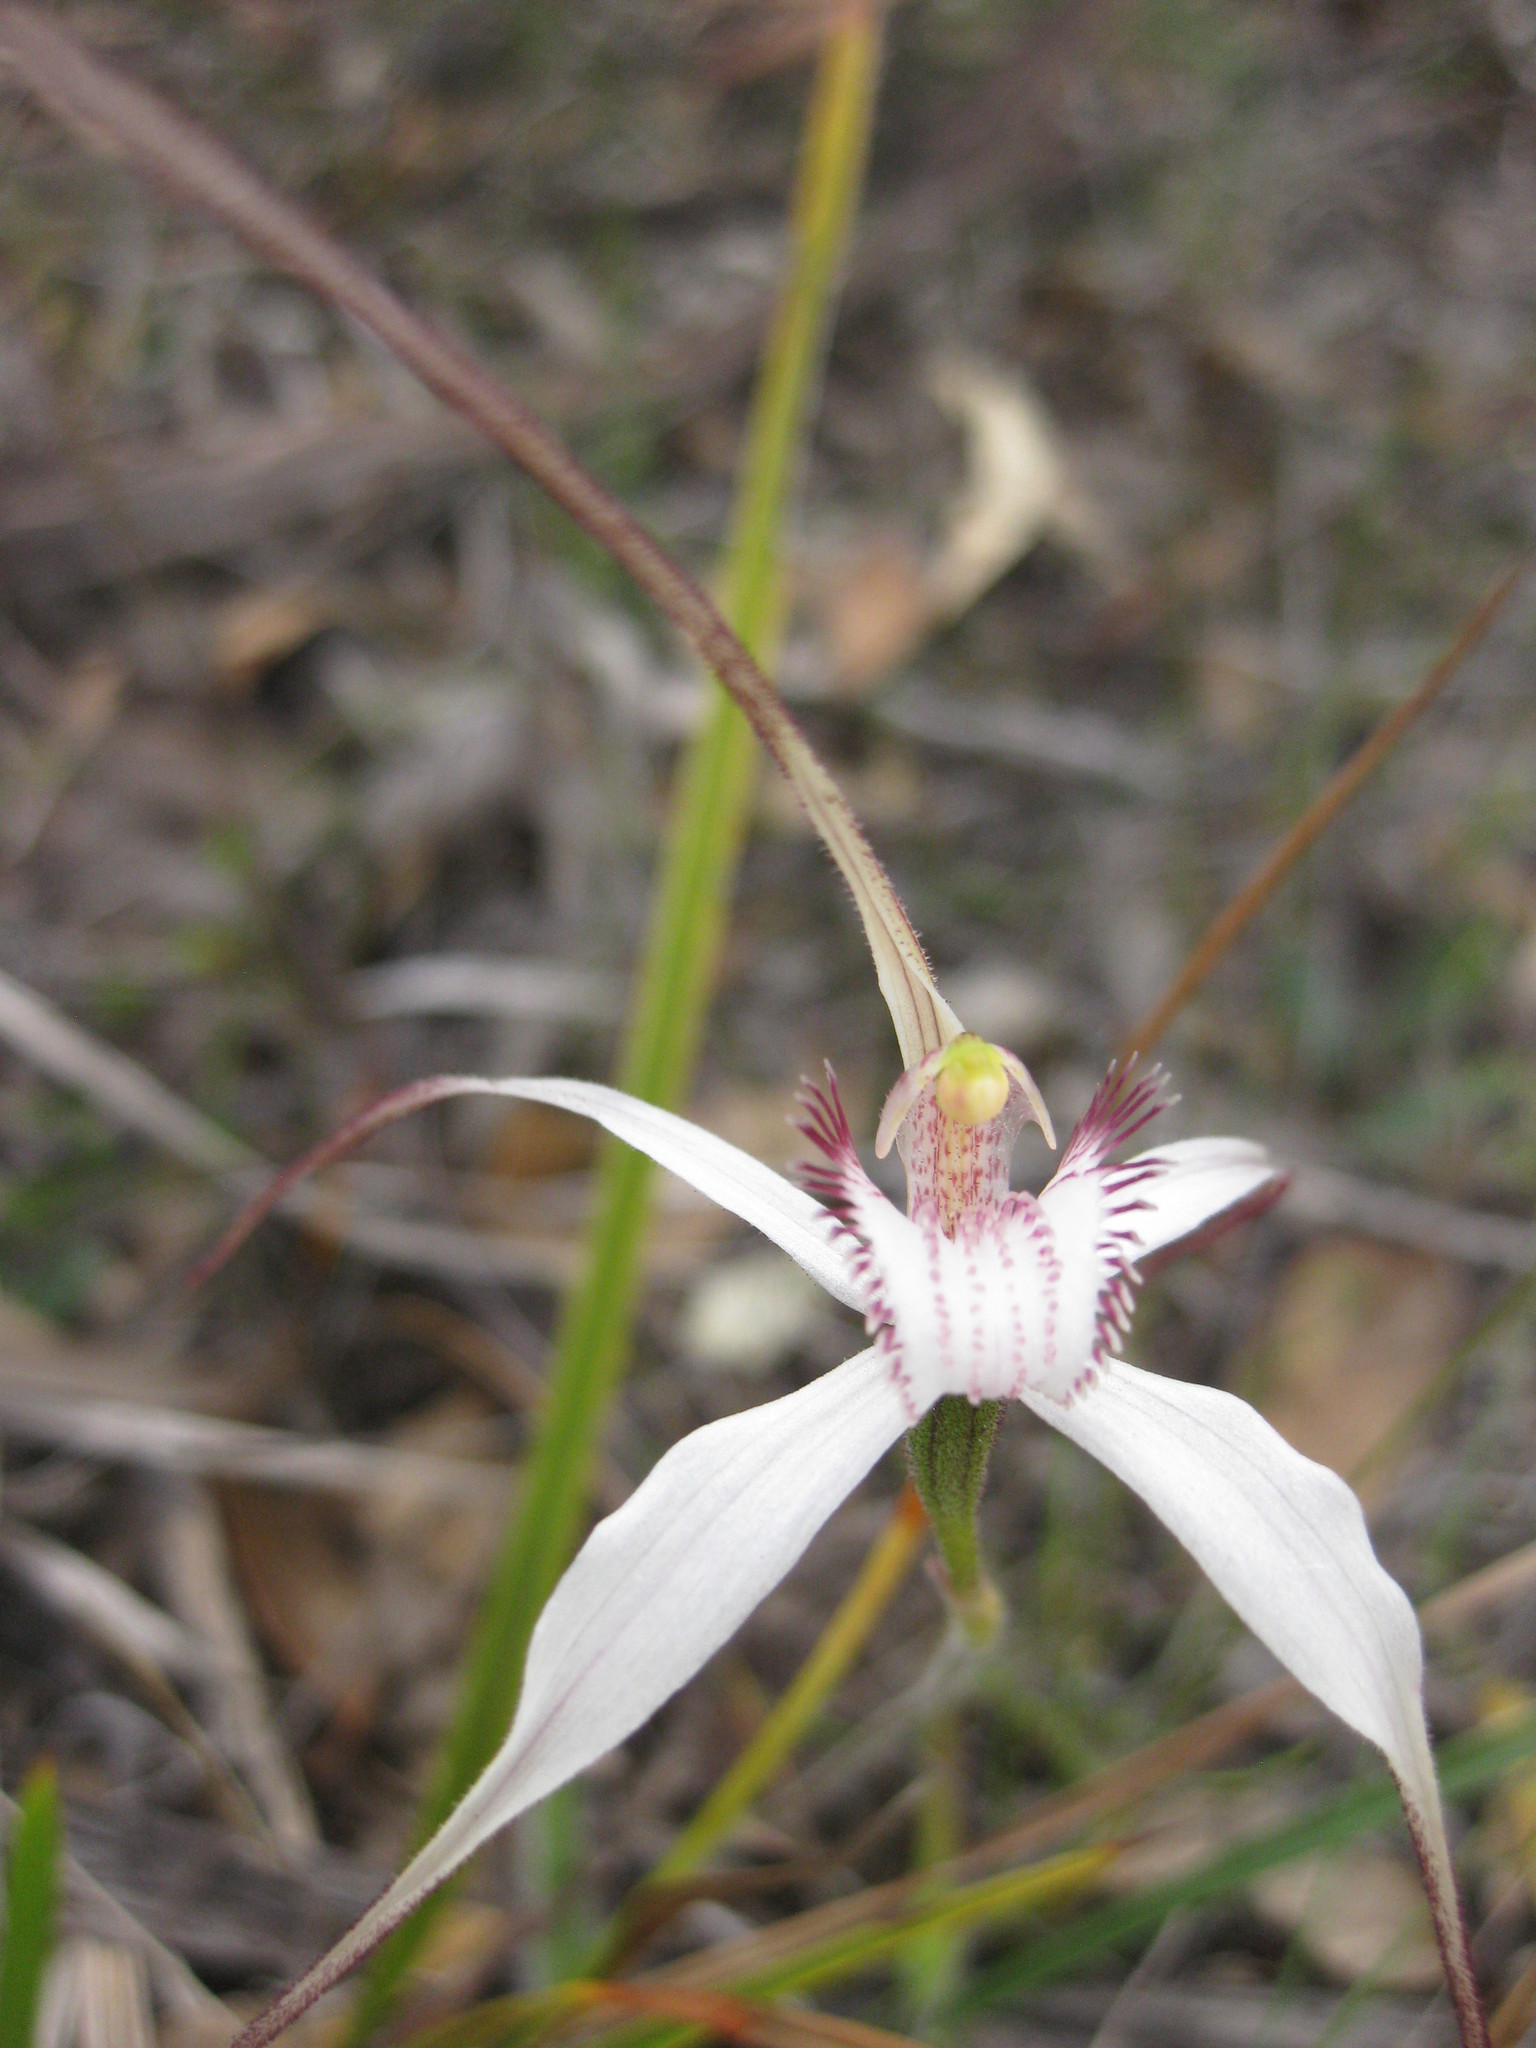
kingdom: Plantae
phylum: Tracheophyta
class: Liliopsida
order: Asparagales
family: Orchidaceae
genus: Caladenia
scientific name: Caladenia longicauda
